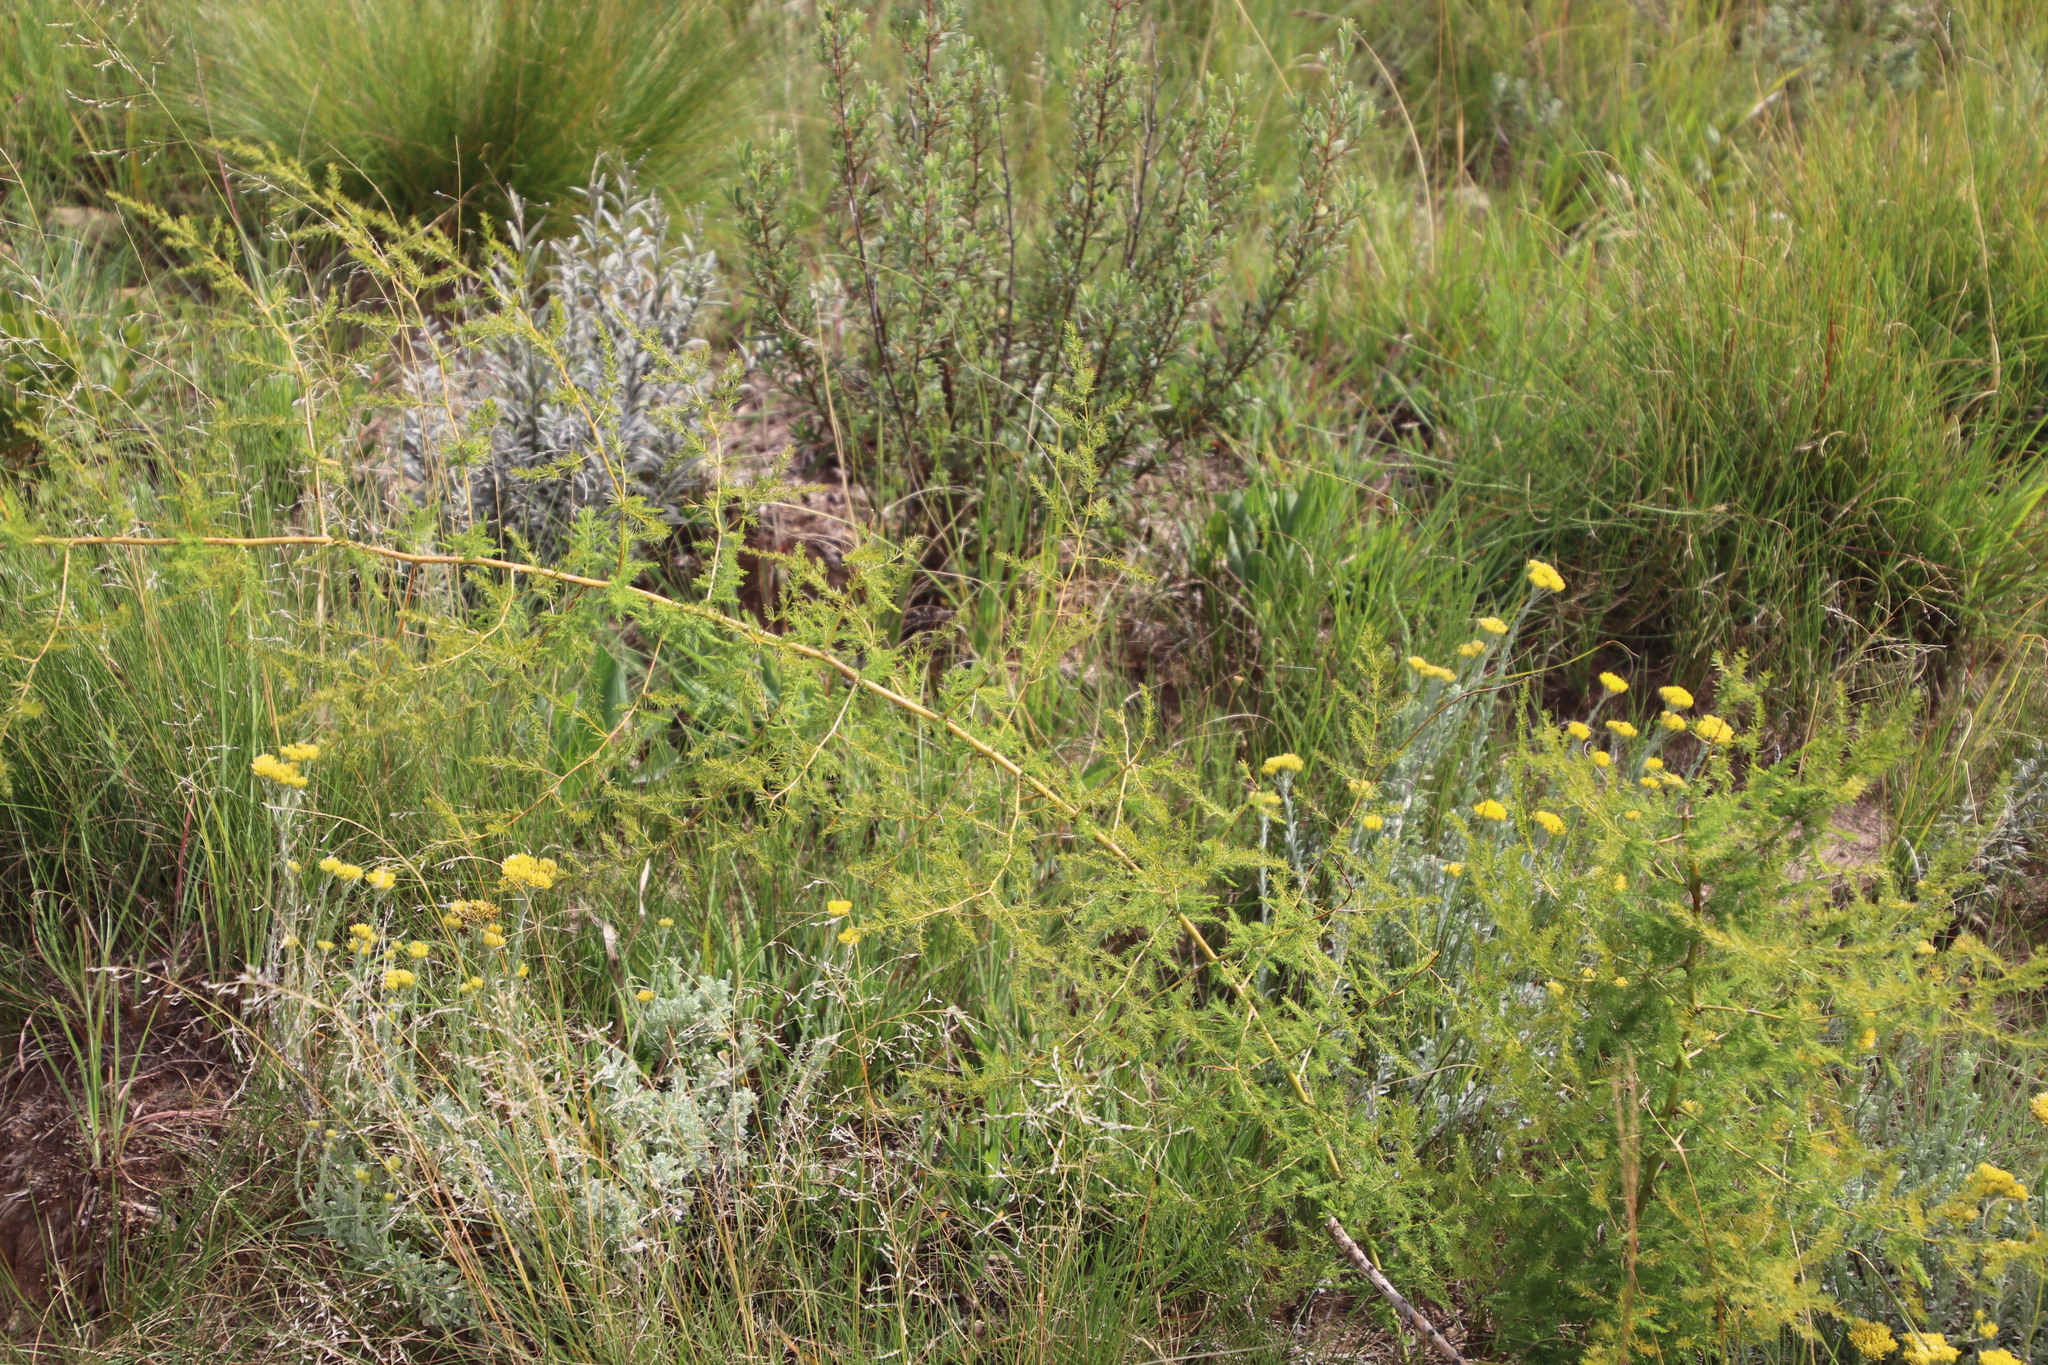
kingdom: Plantae
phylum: Tracheophyta
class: Liliopsida
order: Asparagales
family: Asparagaceae
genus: Asparagus
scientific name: Asparagus africanus
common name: Asparagus-fern
